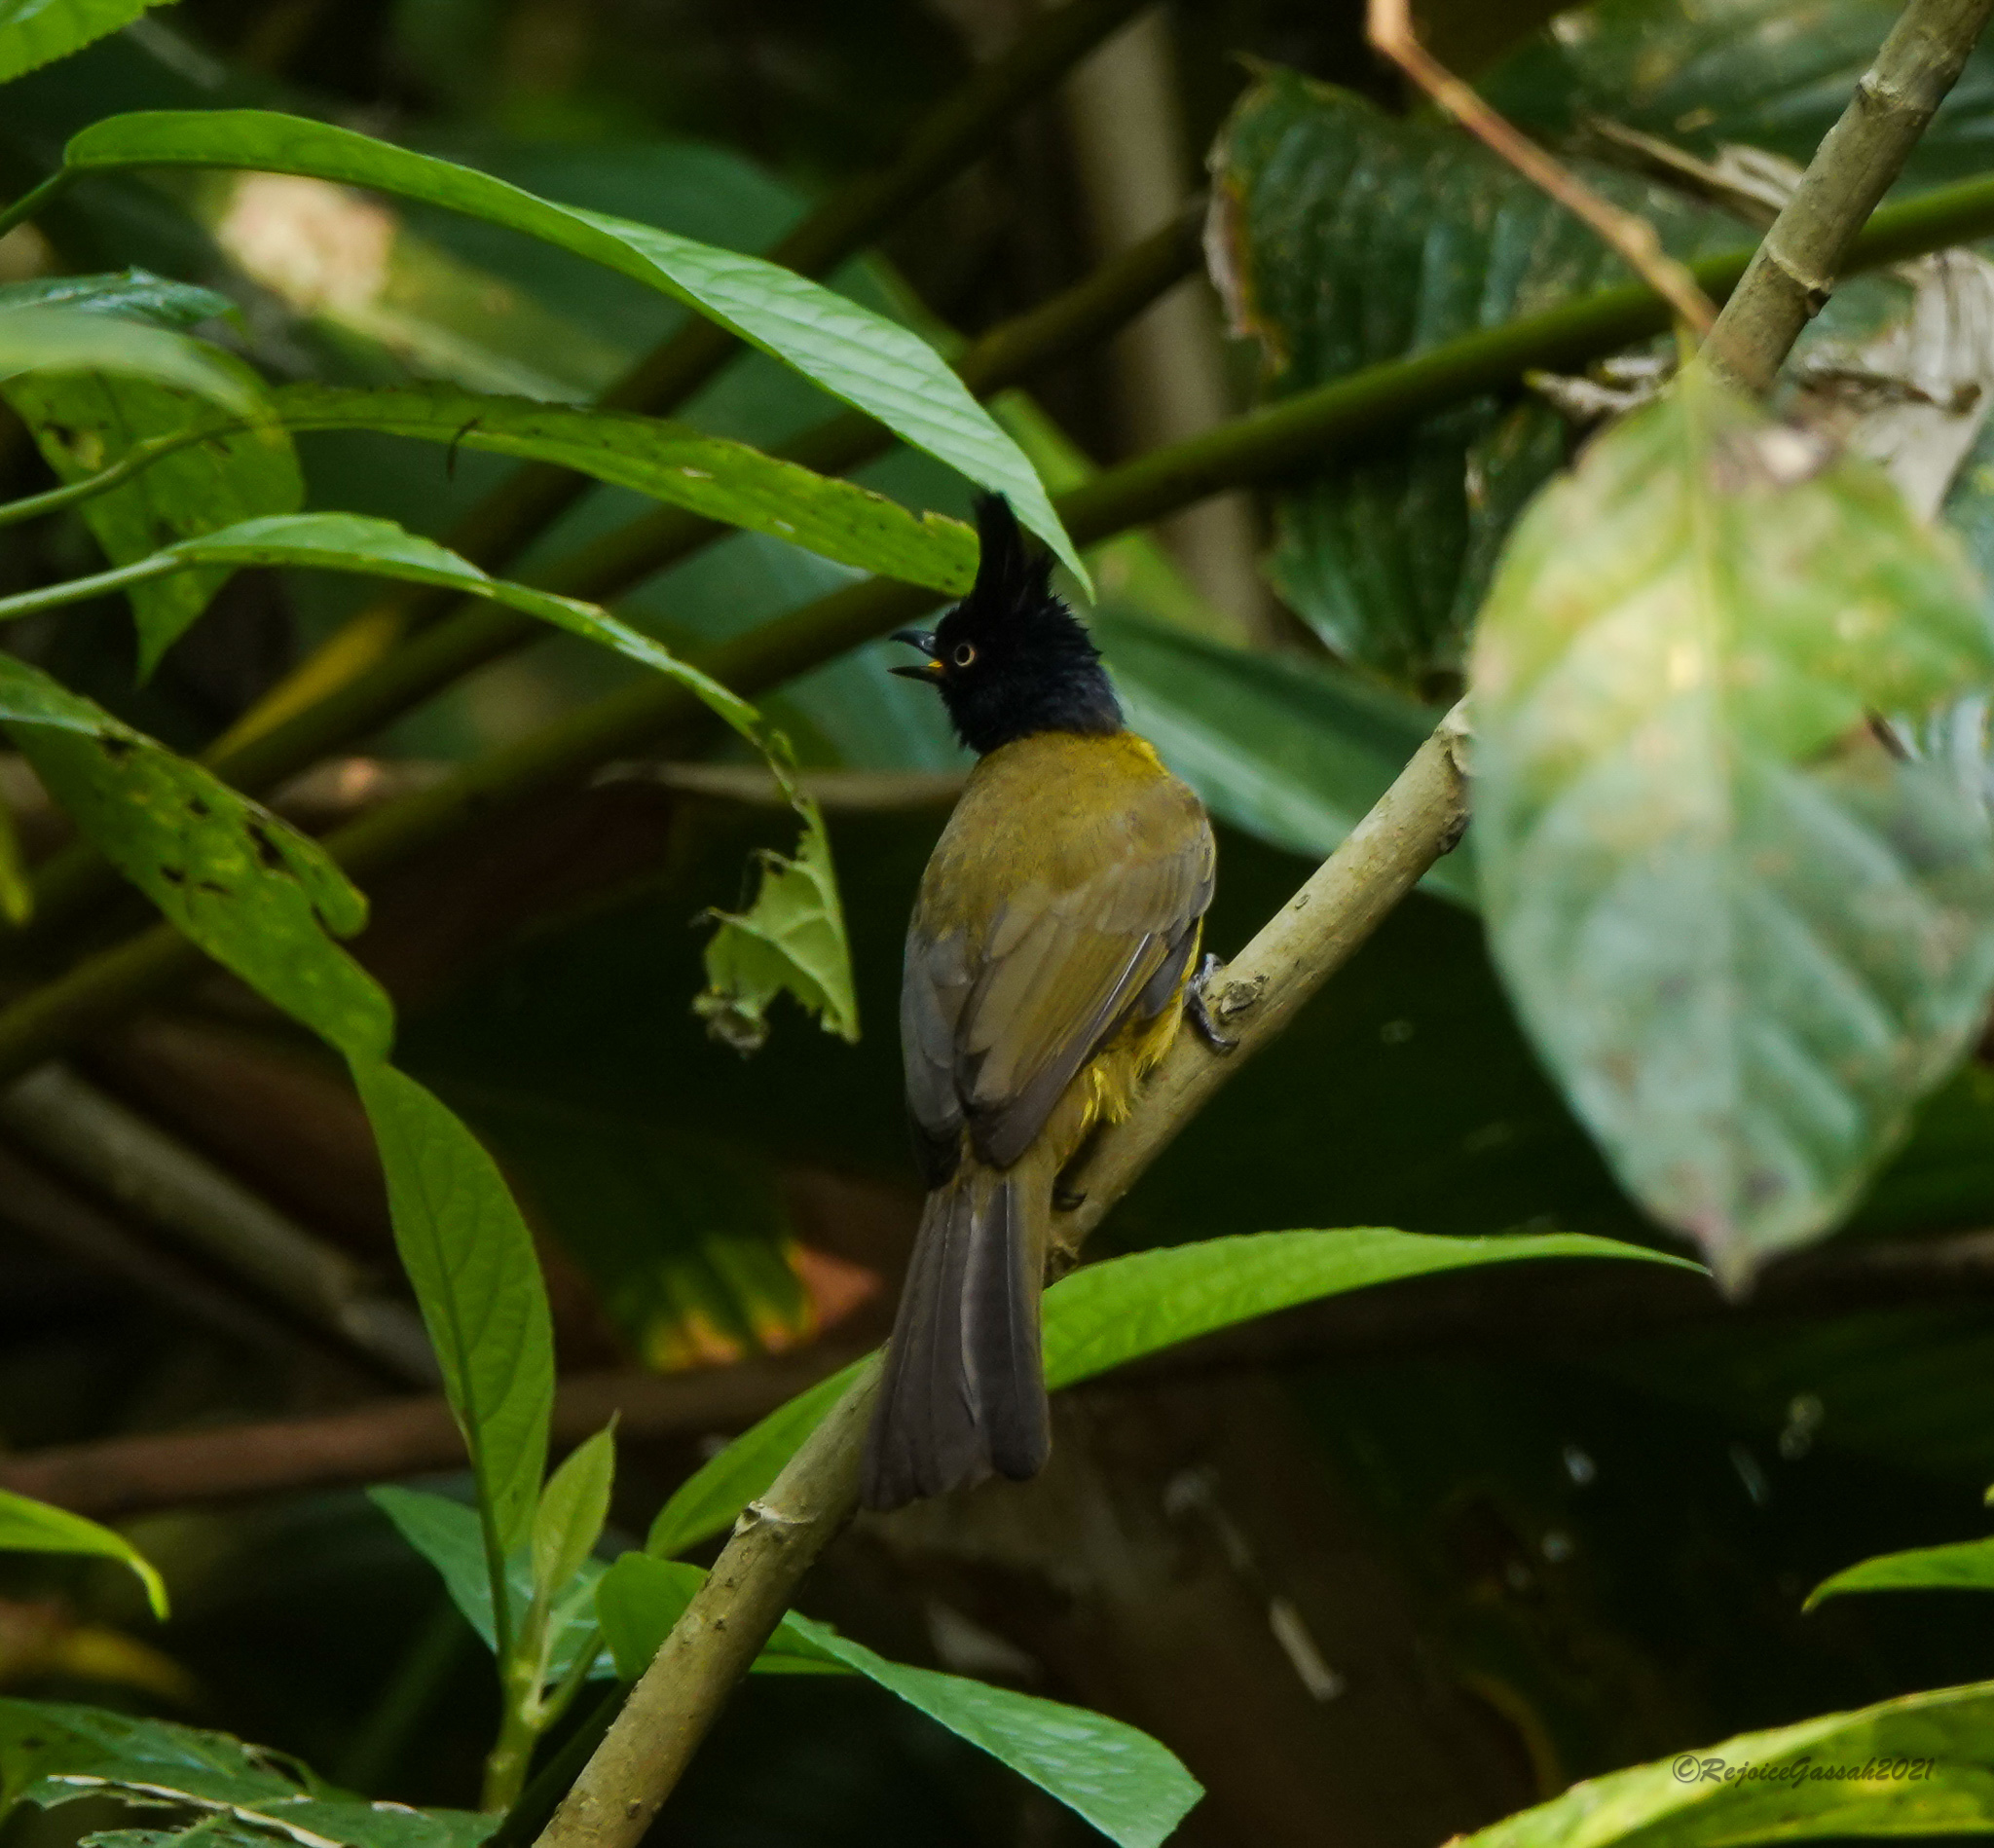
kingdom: Animalia
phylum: Chordata
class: Aves
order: Passeriformes
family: Pycnonotidae
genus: Pycnonotus
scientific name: Pycnonotus flaviventris
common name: Black-crested bulbul
